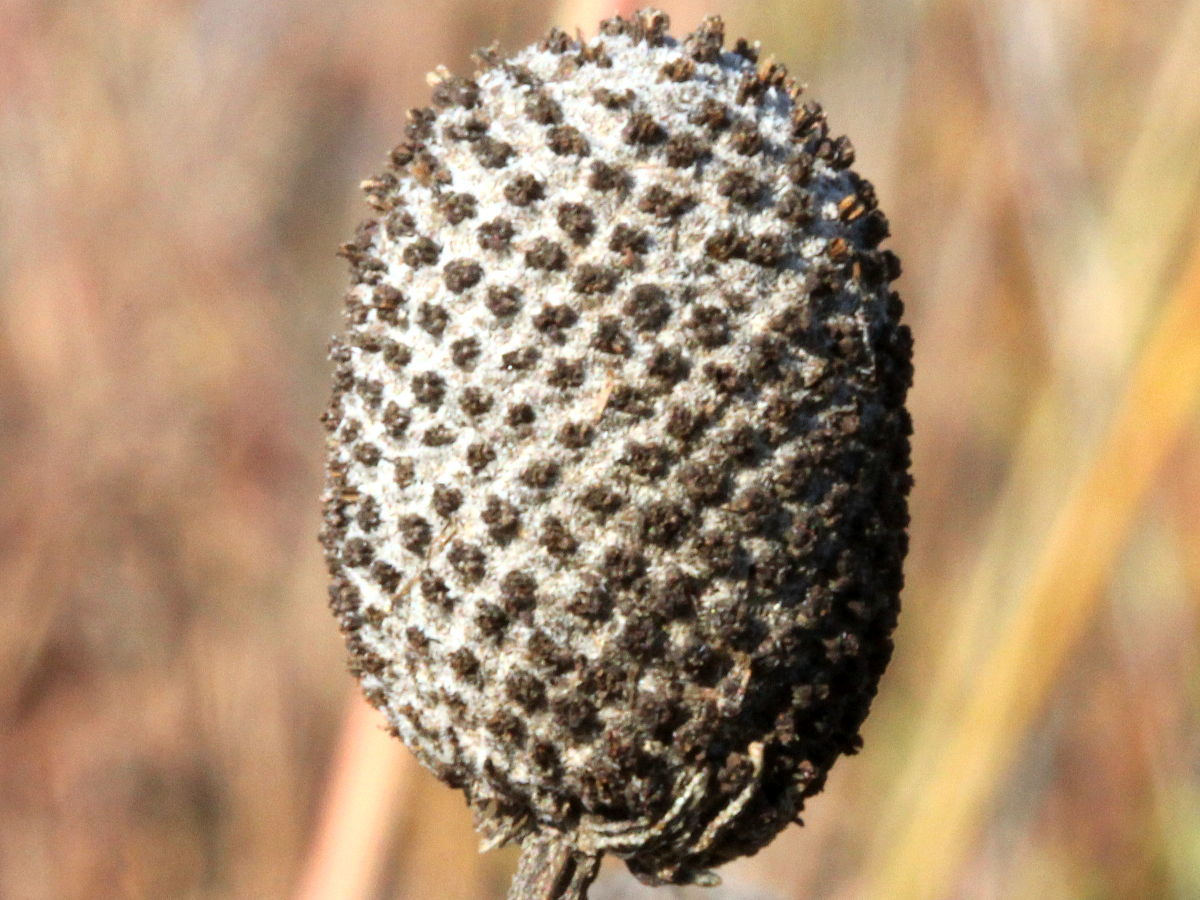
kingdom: Plantae
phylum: Tracheophyta
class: Magnoliopsida
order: Asterales
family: Asteraceae
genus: Ratibida
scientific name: Ratibida pinnata
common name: Drooping prairie-coneflower
